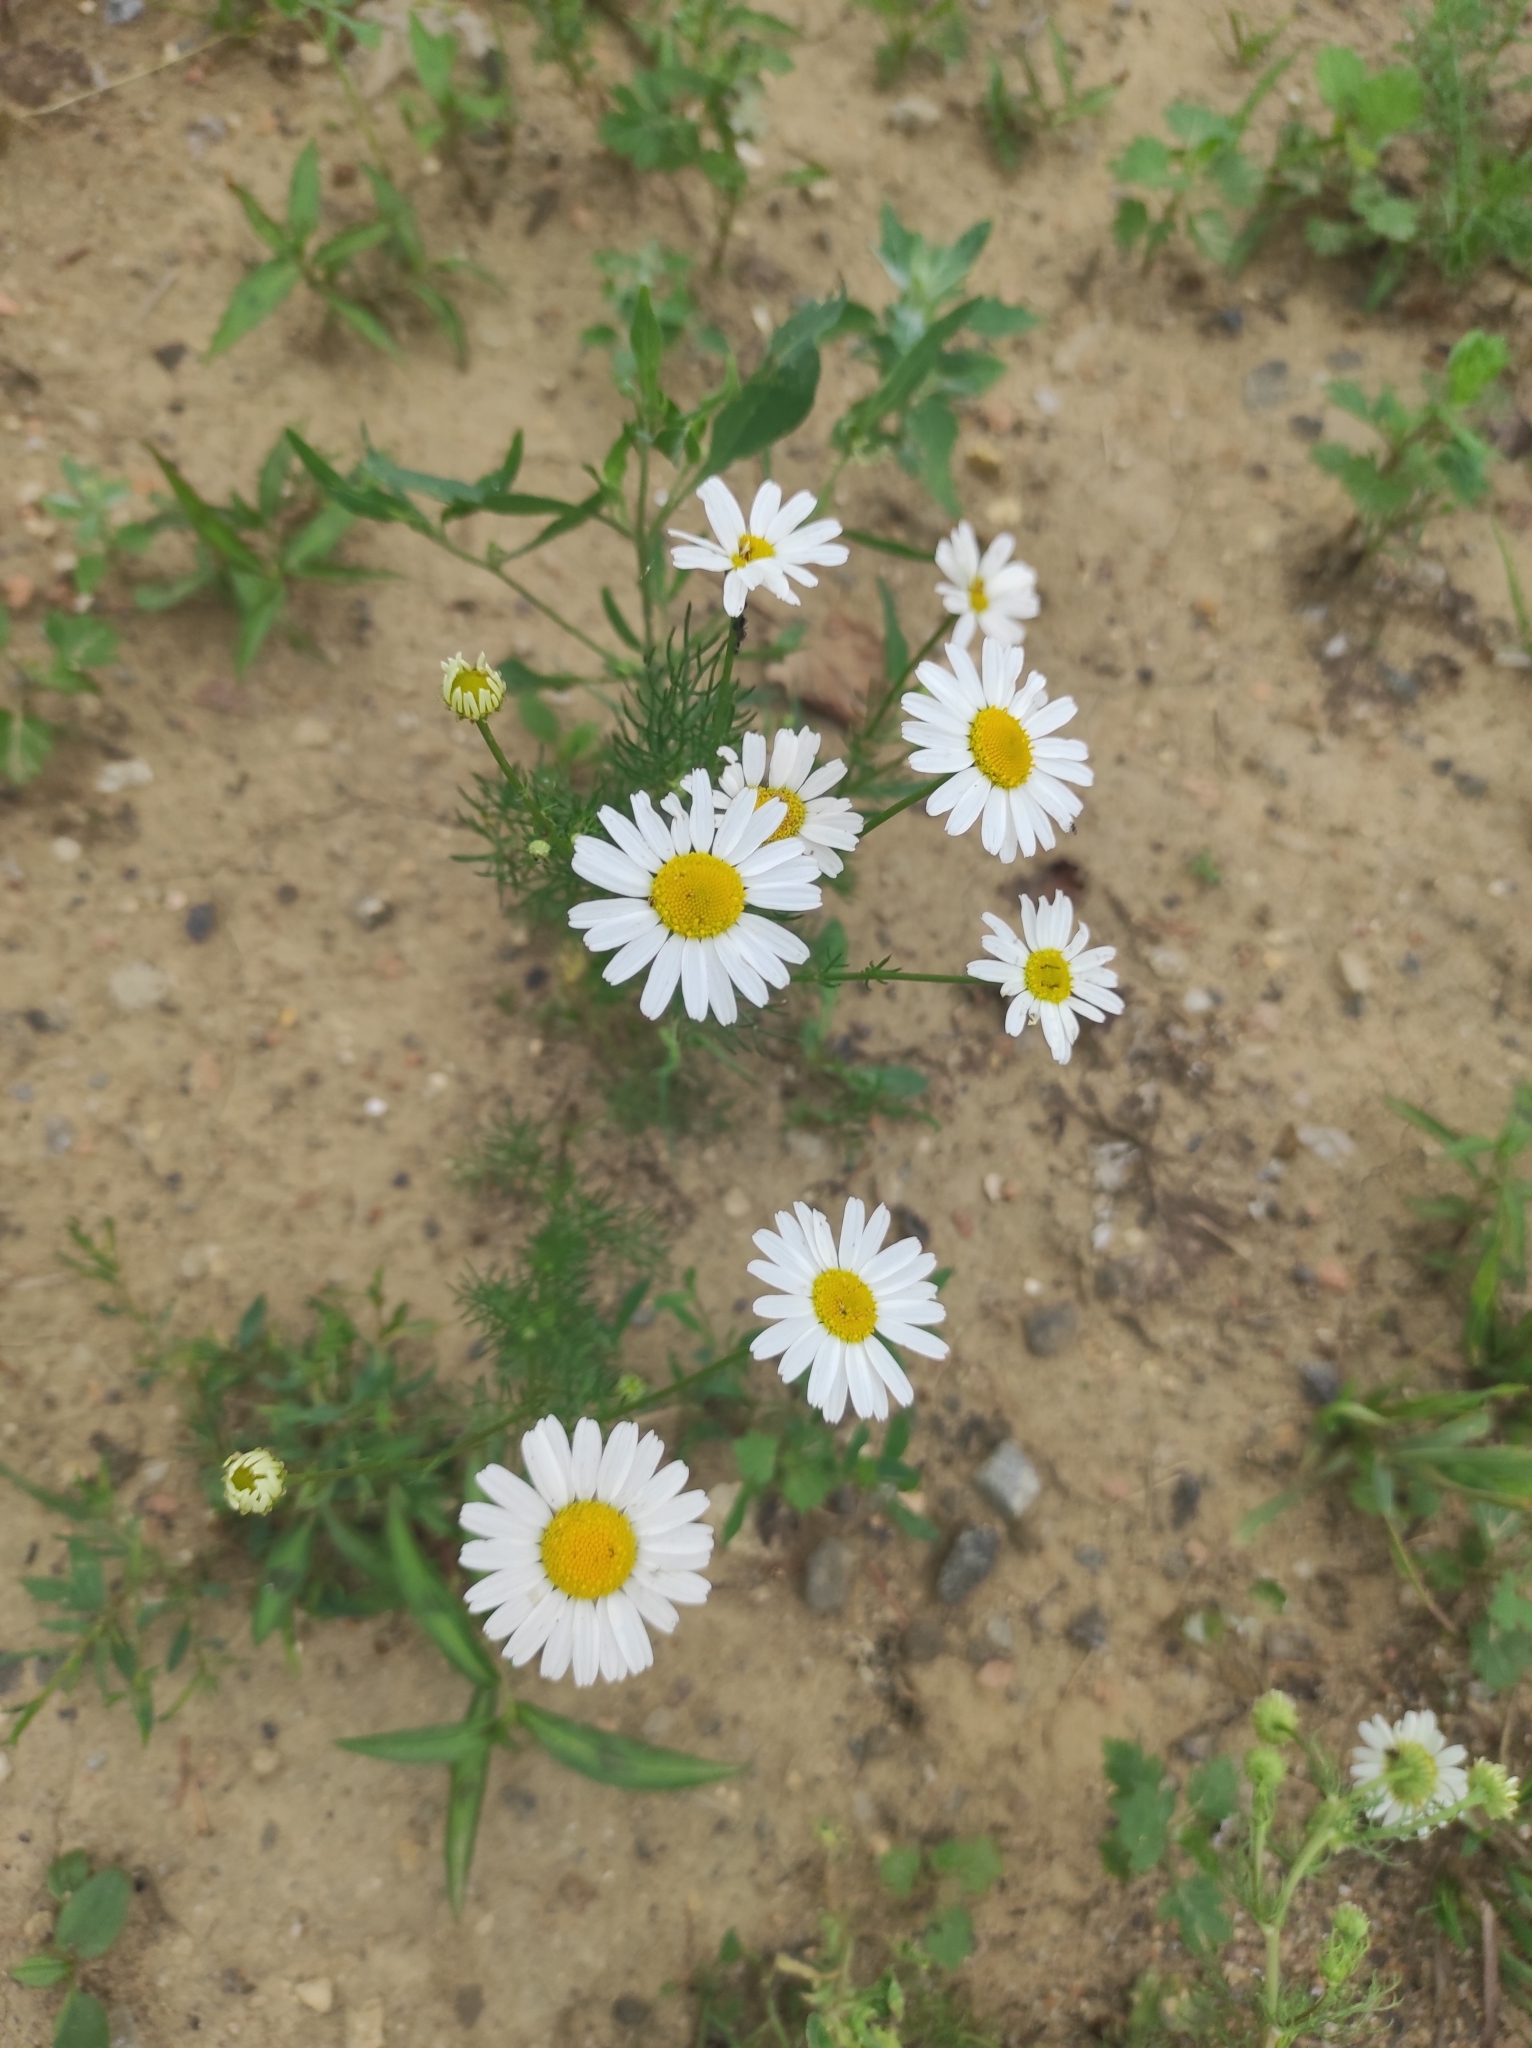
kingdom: Plantae
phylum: Tracheophyta
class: Magnoliopsida
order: Asterales
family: Asteraceae
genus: Tripleurospermum
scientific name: Tripleurospermum inodorum
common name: Scentless mayweed
